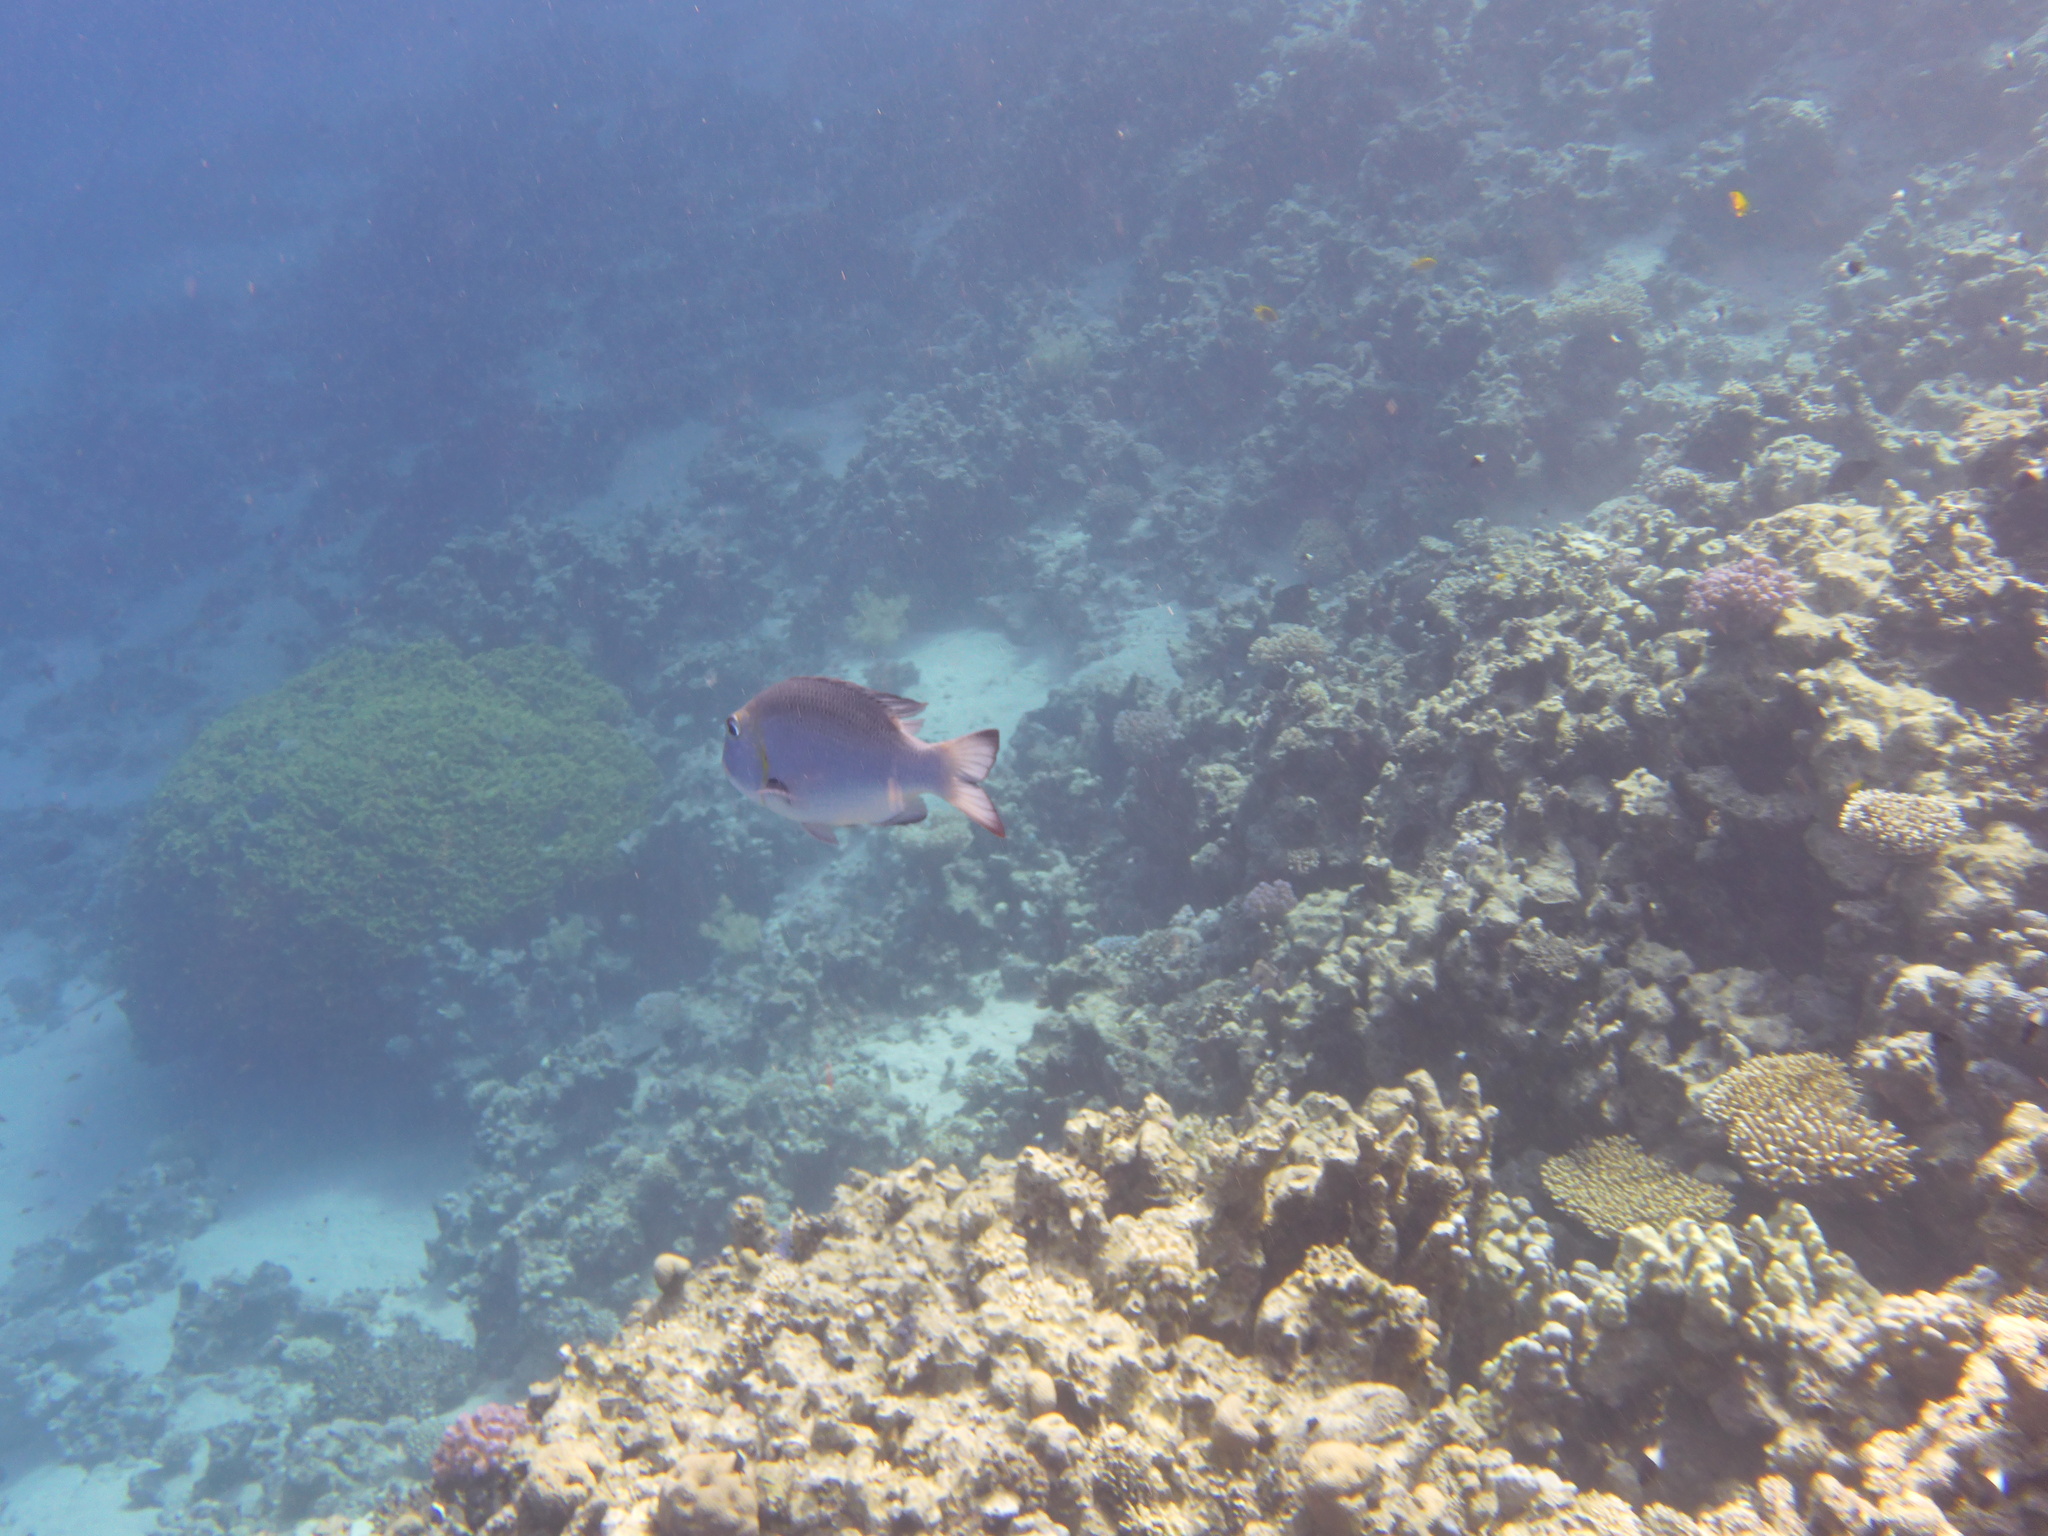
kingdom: Animalia
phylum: Chordata
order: Perciformes
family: Lethrinidae
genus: Monotaxis
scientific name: Monotaxis grandoculis
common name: Bigeye emperor
